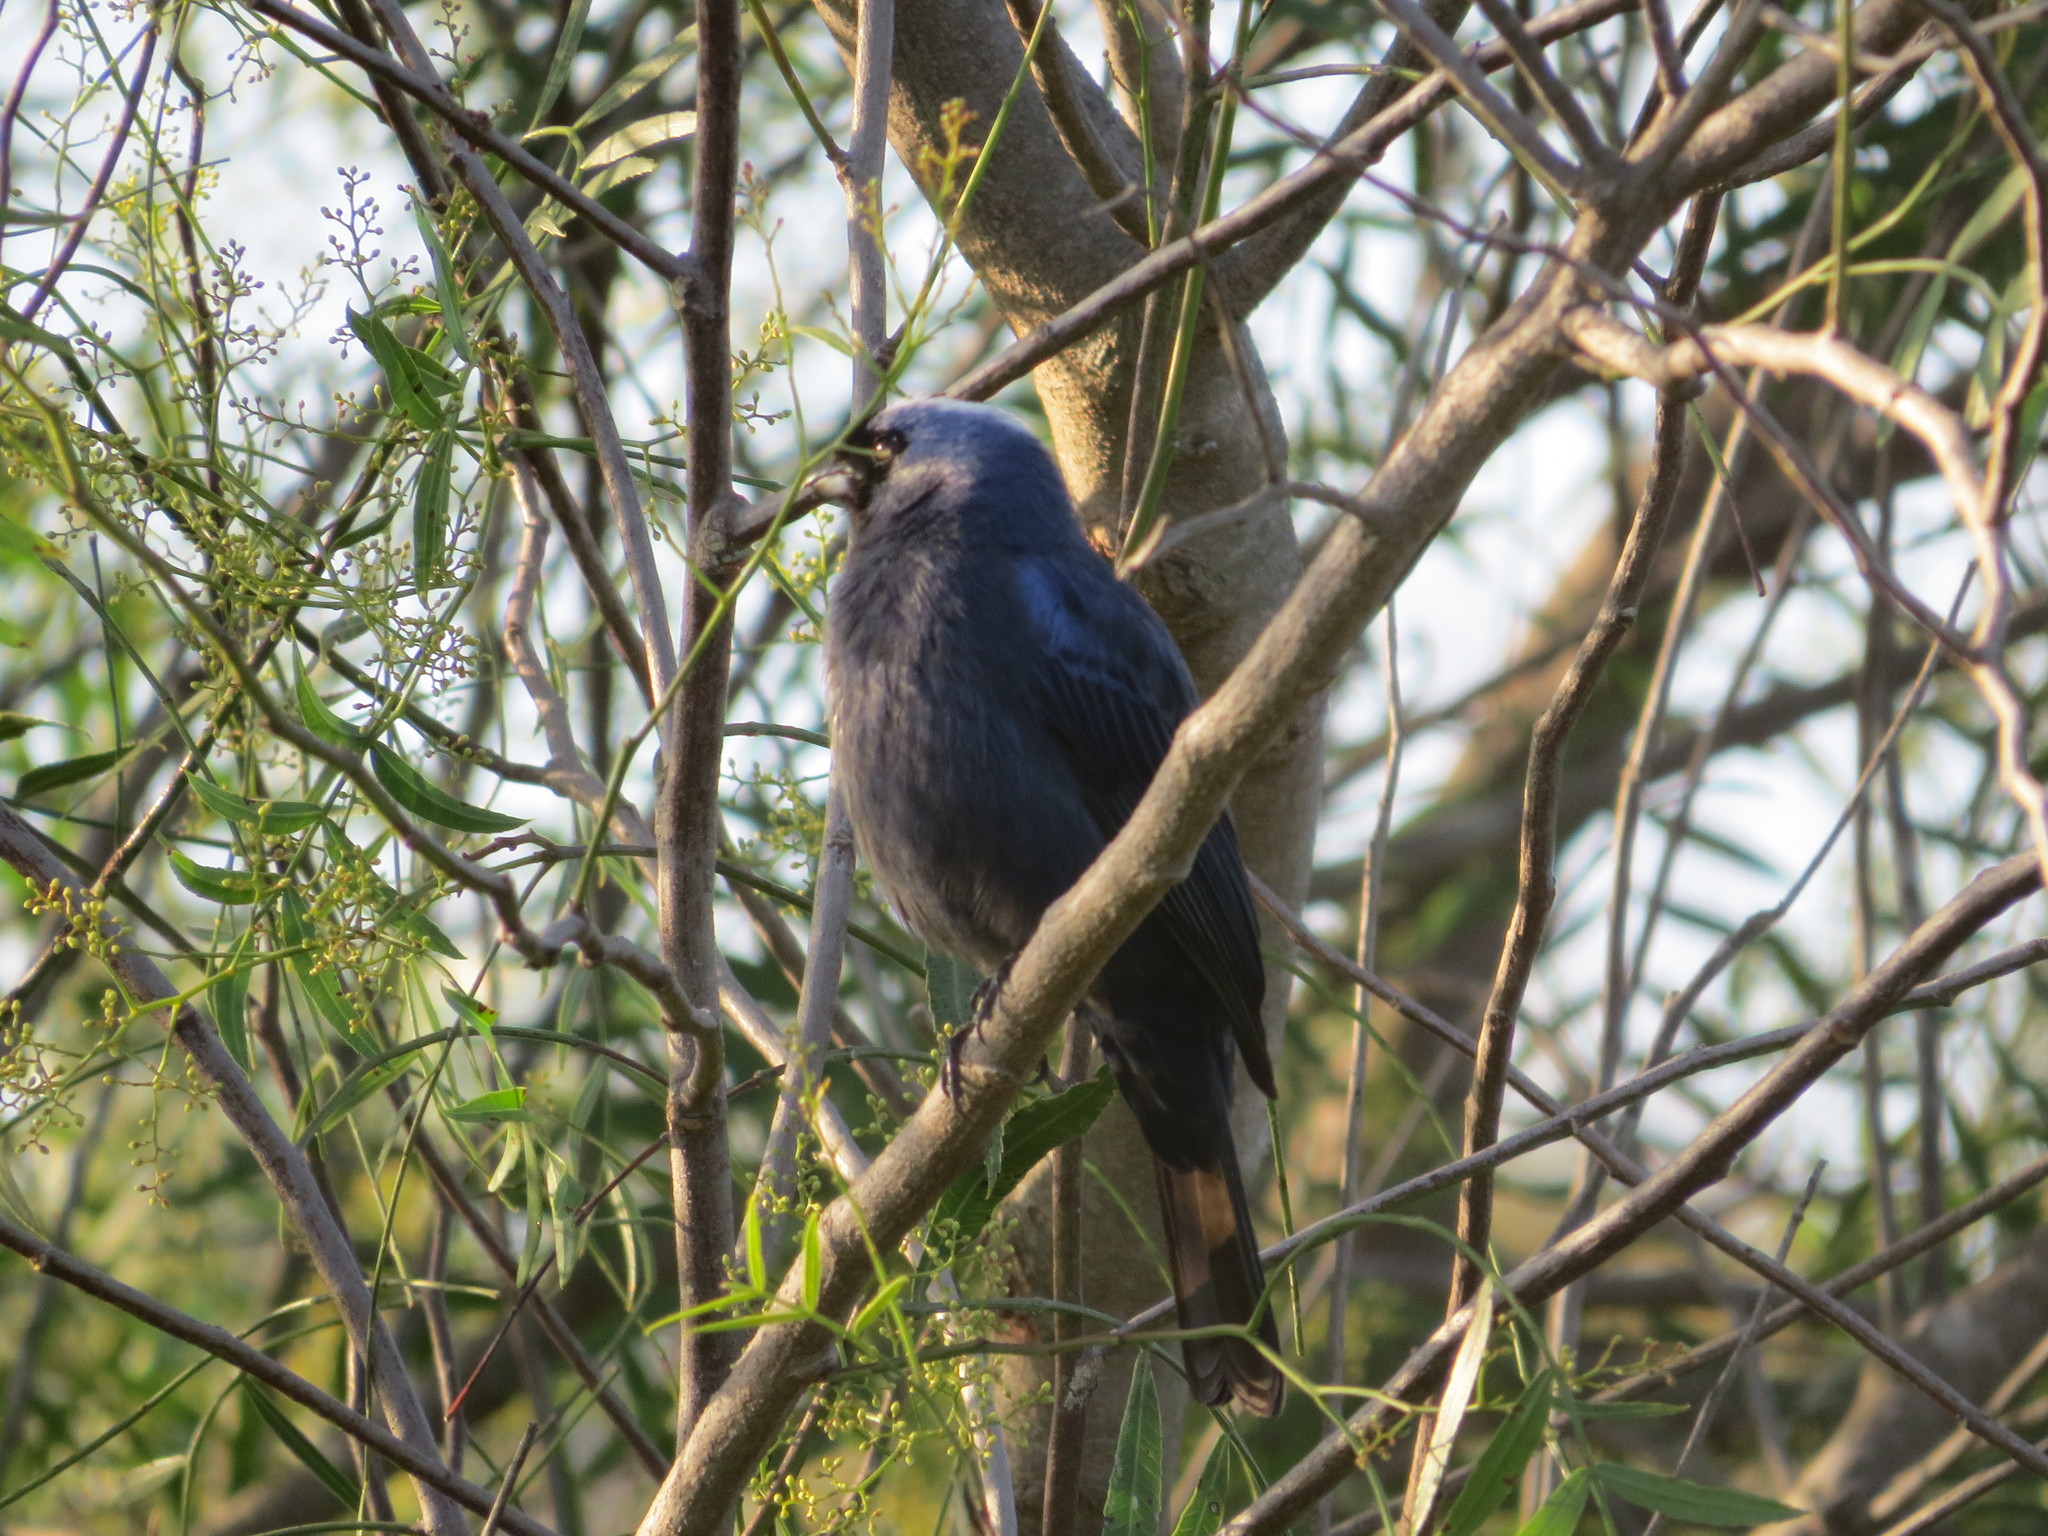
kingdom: Animalia
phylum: Chordata
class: Aves
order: Passeriformes
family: Thraupidae
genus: Stephanophorus
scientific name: Stephanophorus diadematus
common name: Diademed tanager
